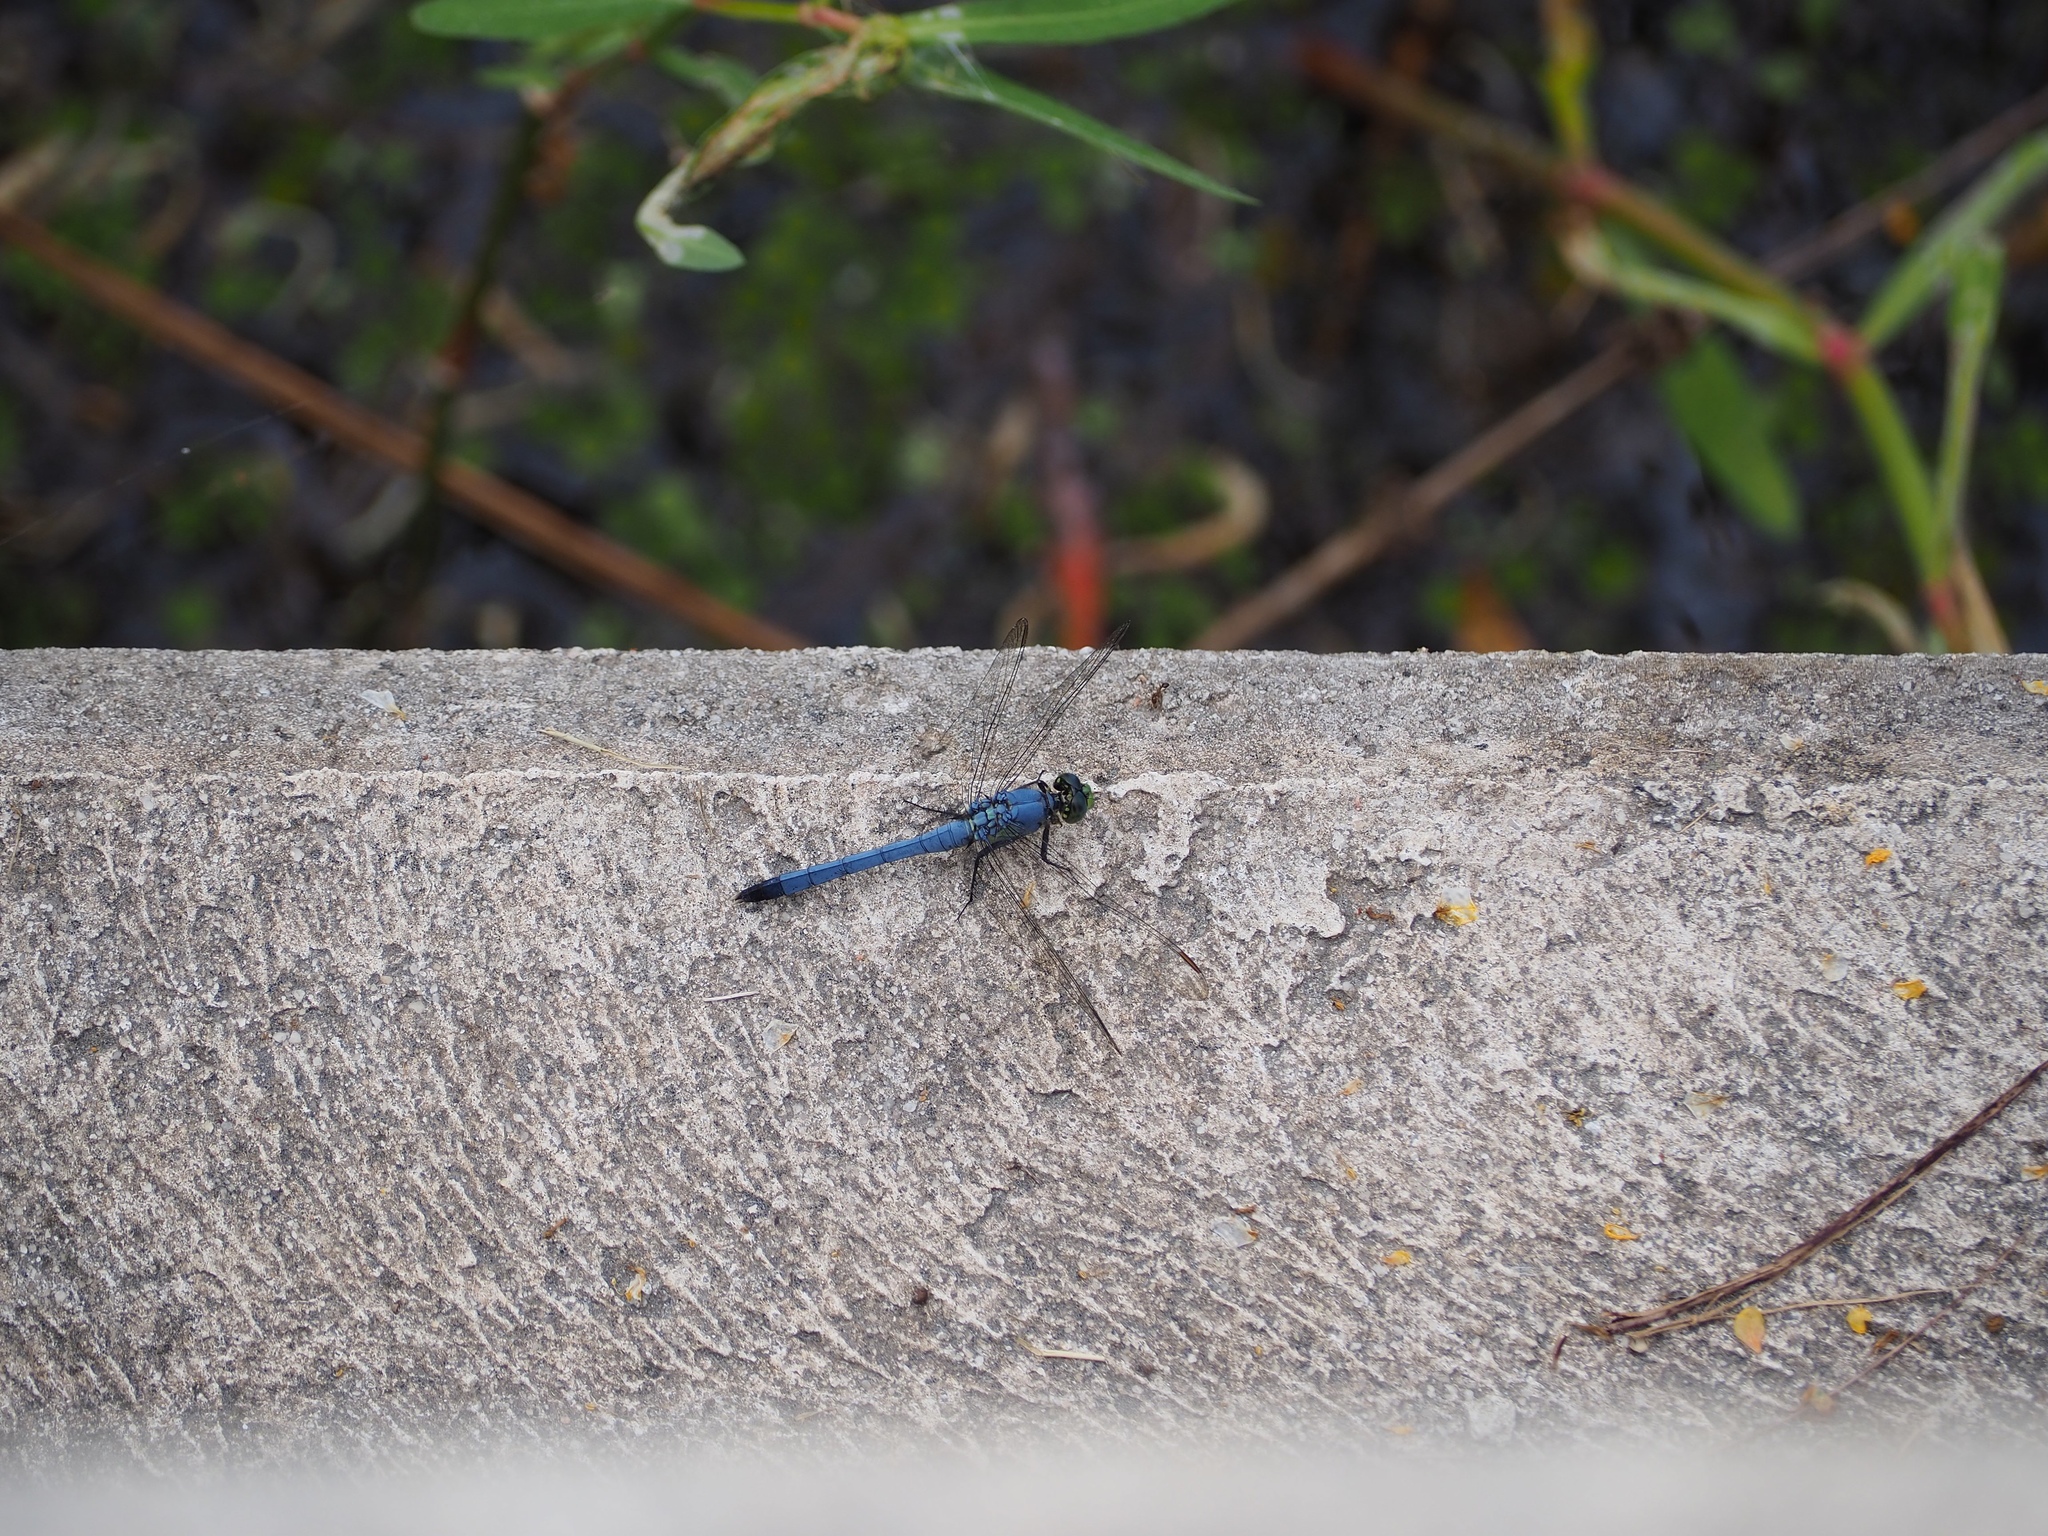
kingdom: Animalia
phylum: Arthropoda
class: Insecta
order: Odonata
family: Libellulidae
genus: Erythemis
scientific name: Erythemis simplicicollis
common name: Eastern pondhawk
